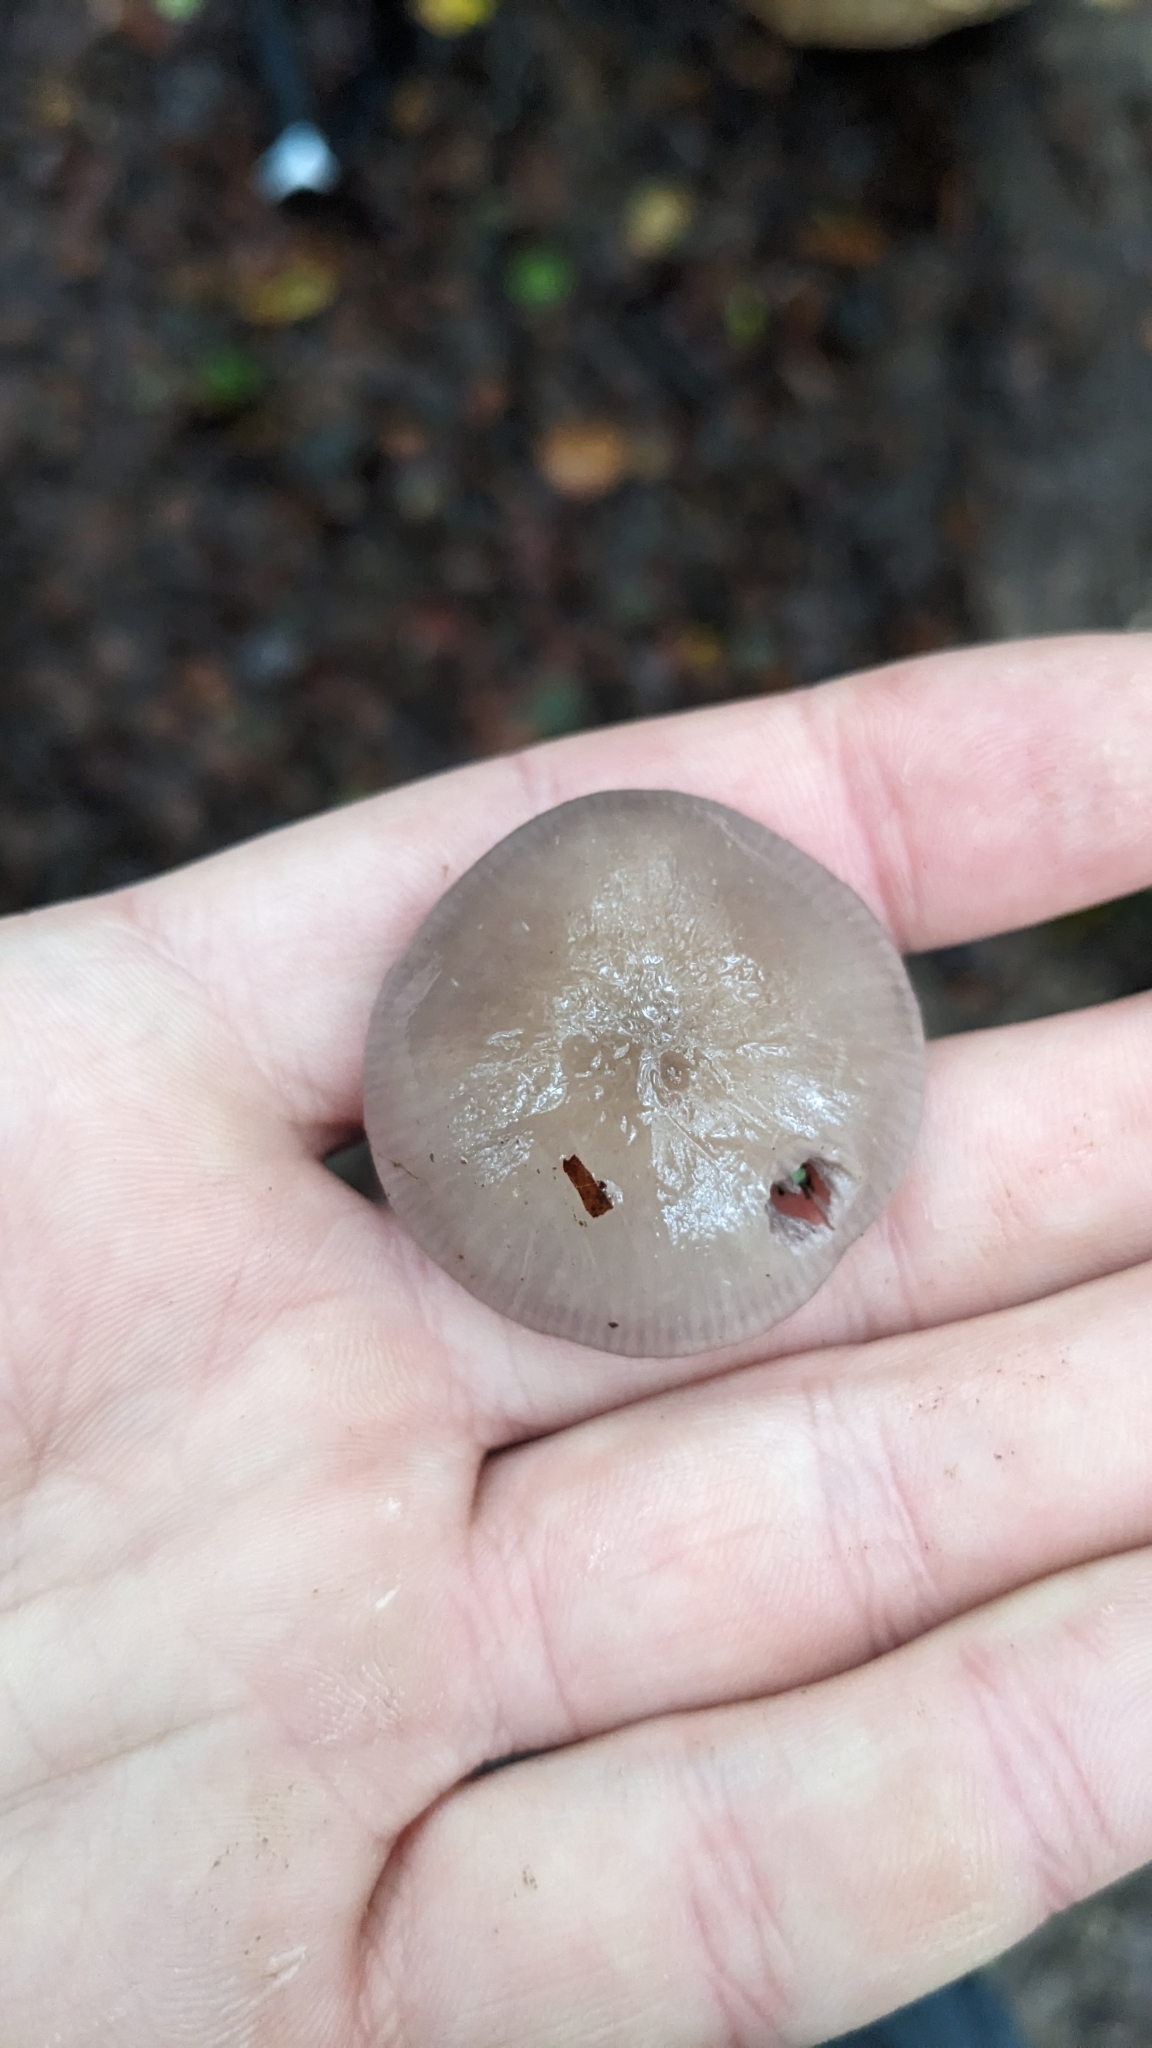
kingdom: Fungi
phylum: Basidiomycota
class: Agaricomycetes
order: Agaricales
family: Mycenaceae
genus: Mycena
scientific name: Mycena pelianthina
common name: Blackedge bonnet
